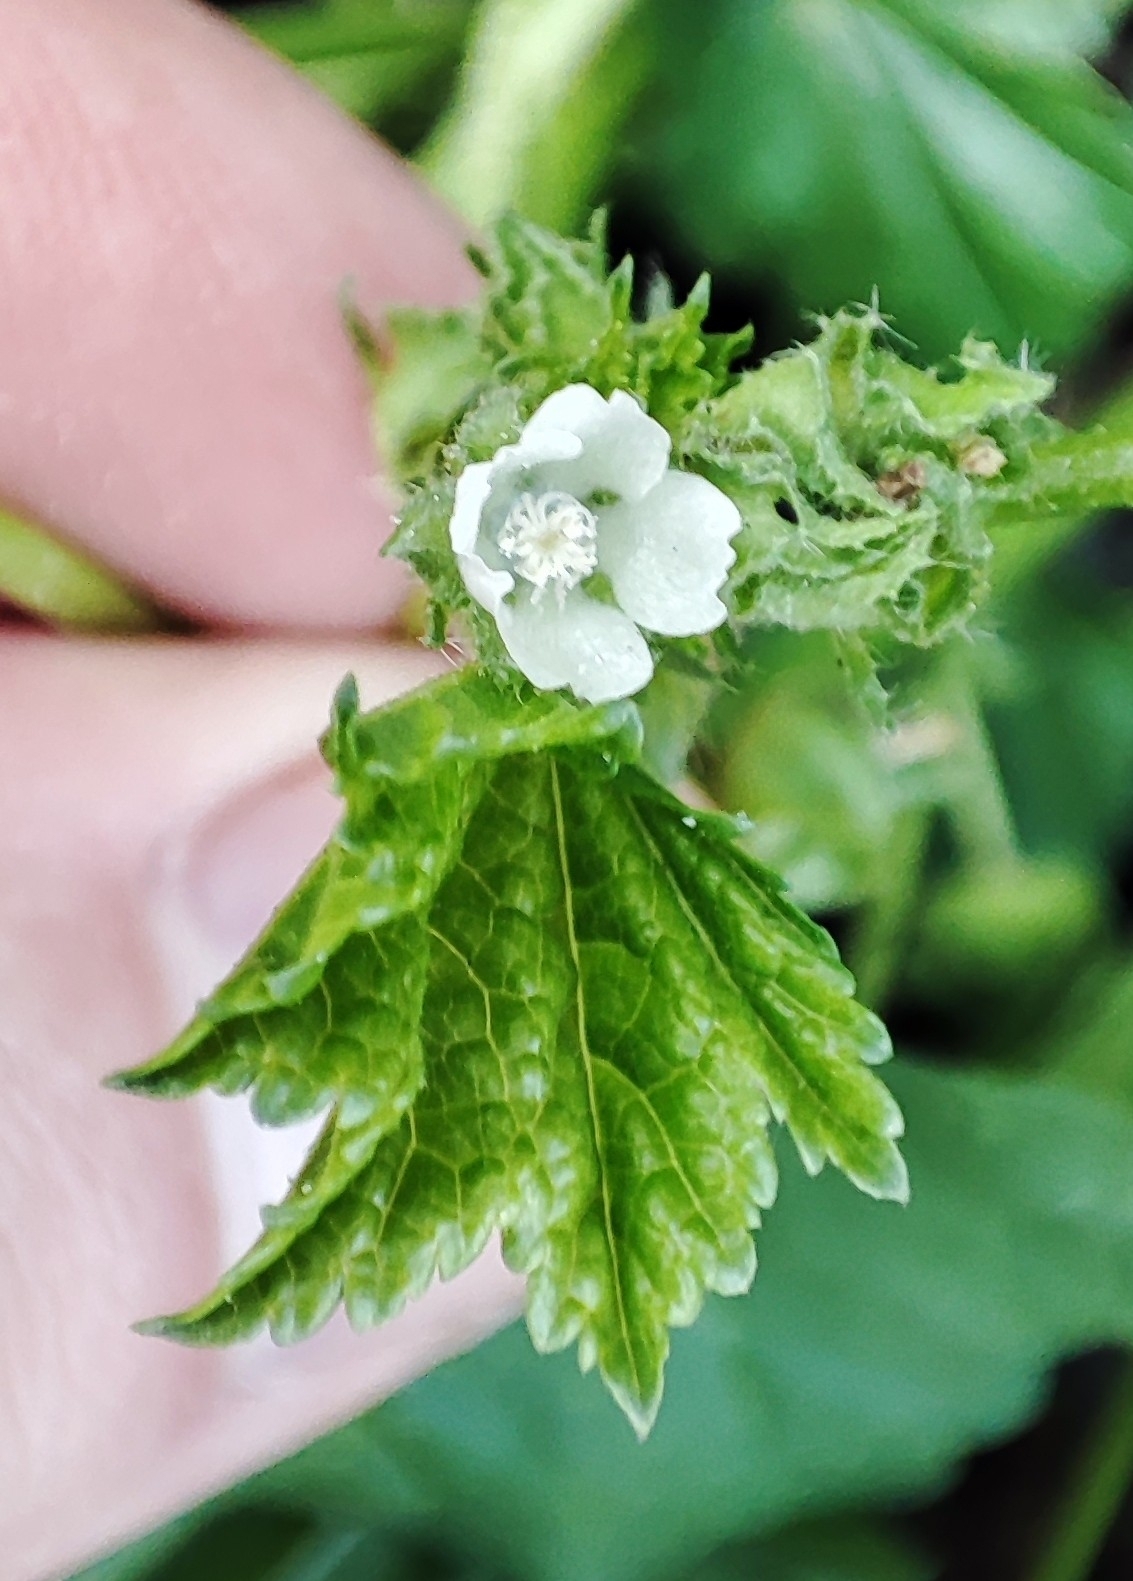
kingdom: Plantae
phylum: Tracheophyta
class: Magnoliopsida
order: Malvales
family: Malvaceae
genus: Malva
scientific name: Malva pusilla
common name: Small mallow
